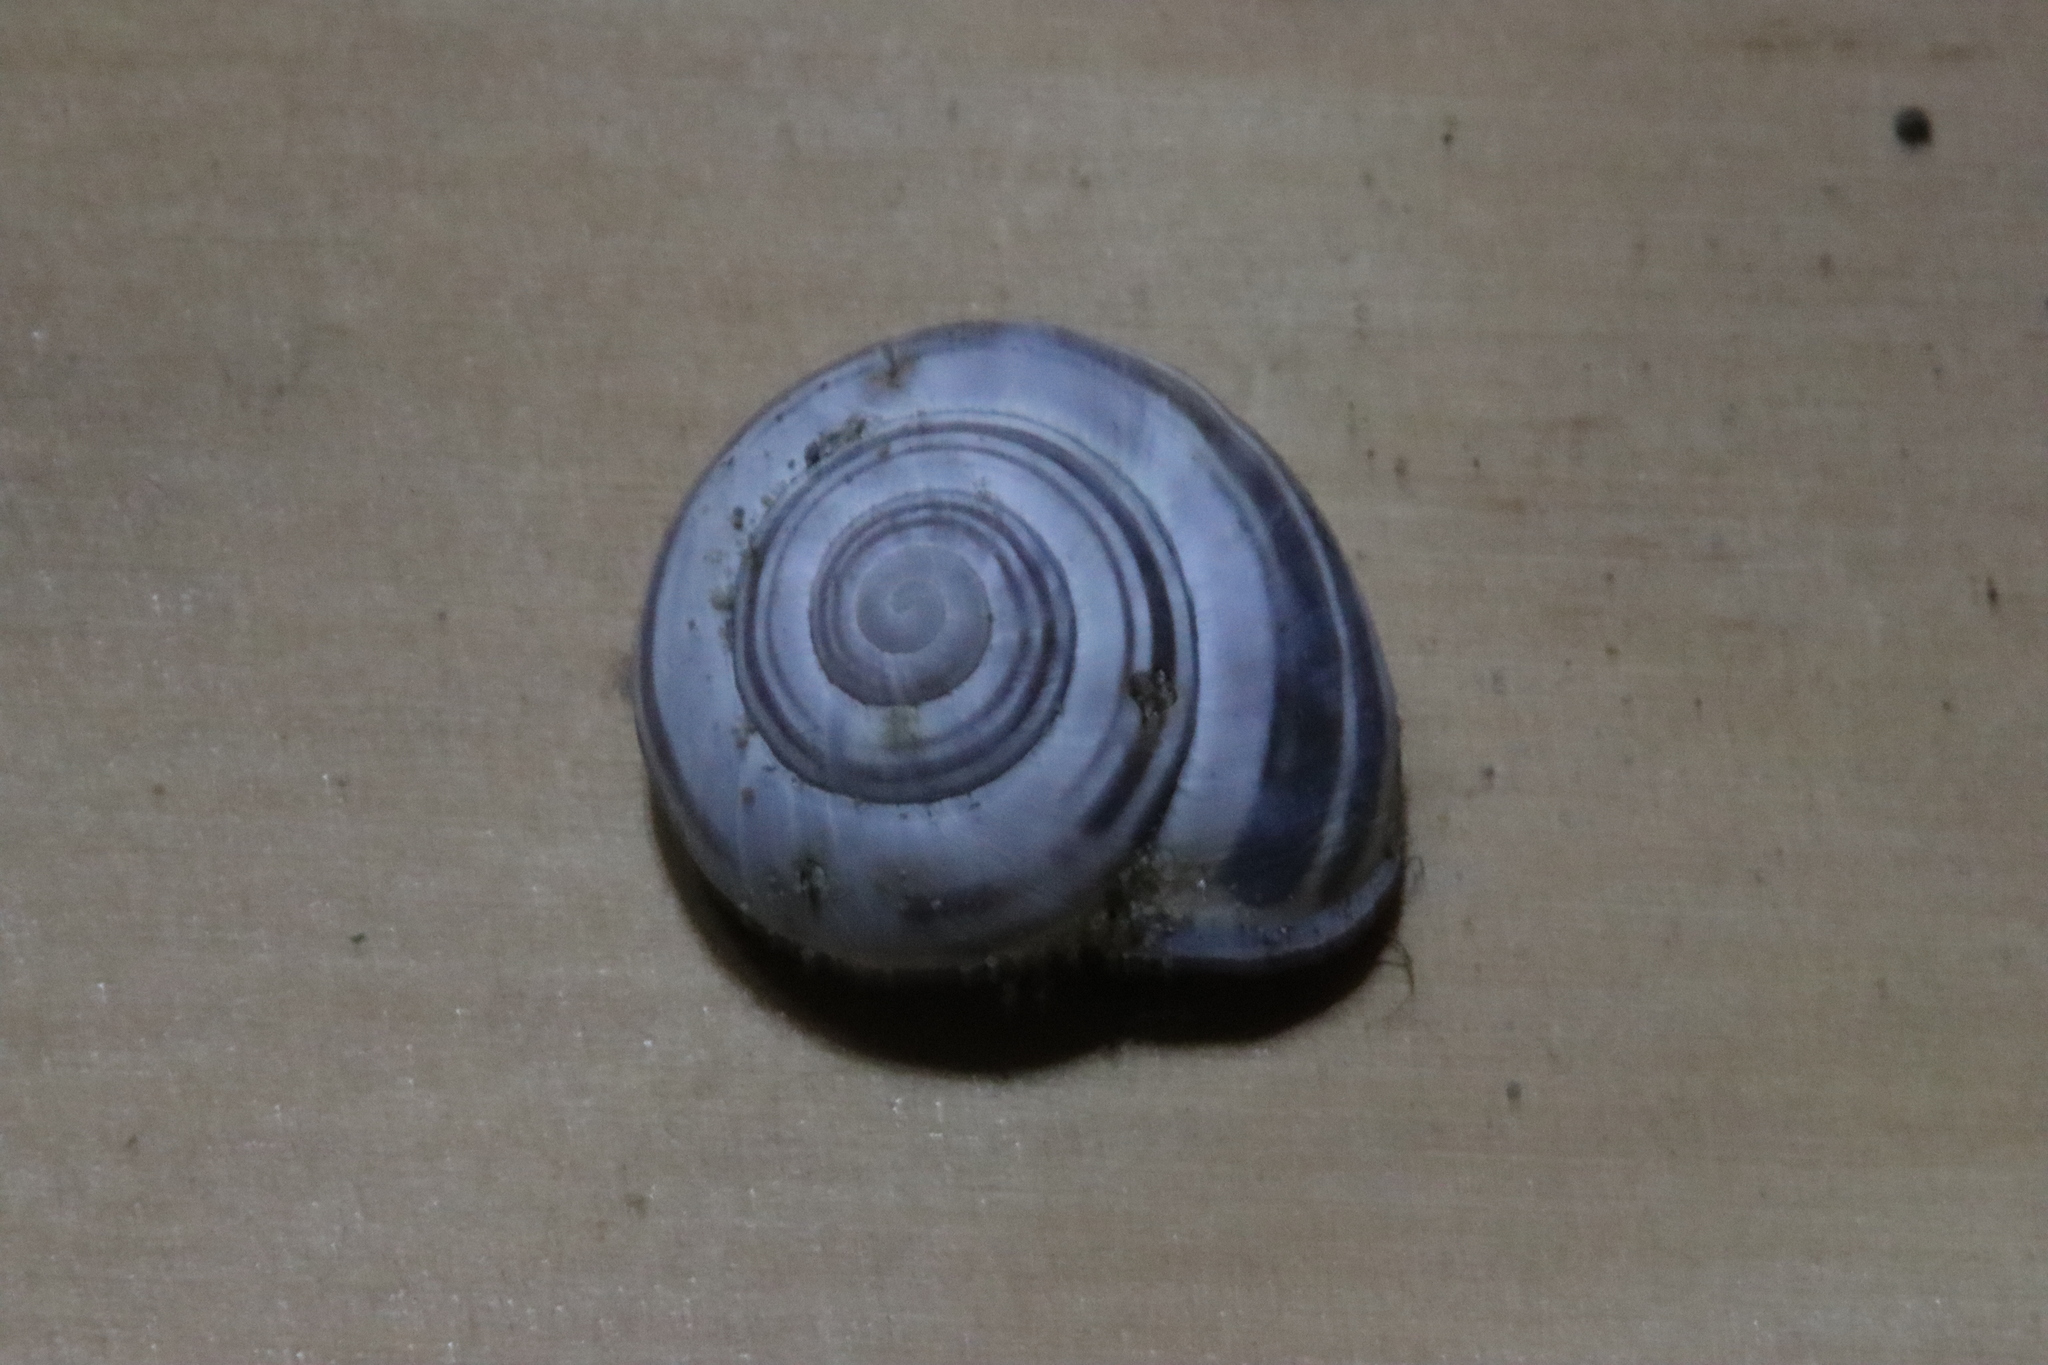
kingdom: Animalia
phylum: Mollusca
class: Gastropoda
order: Stylommatophora
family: Helicidae
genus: Cepaea
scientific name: Cepaea nemoralis
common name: Grovesnail
